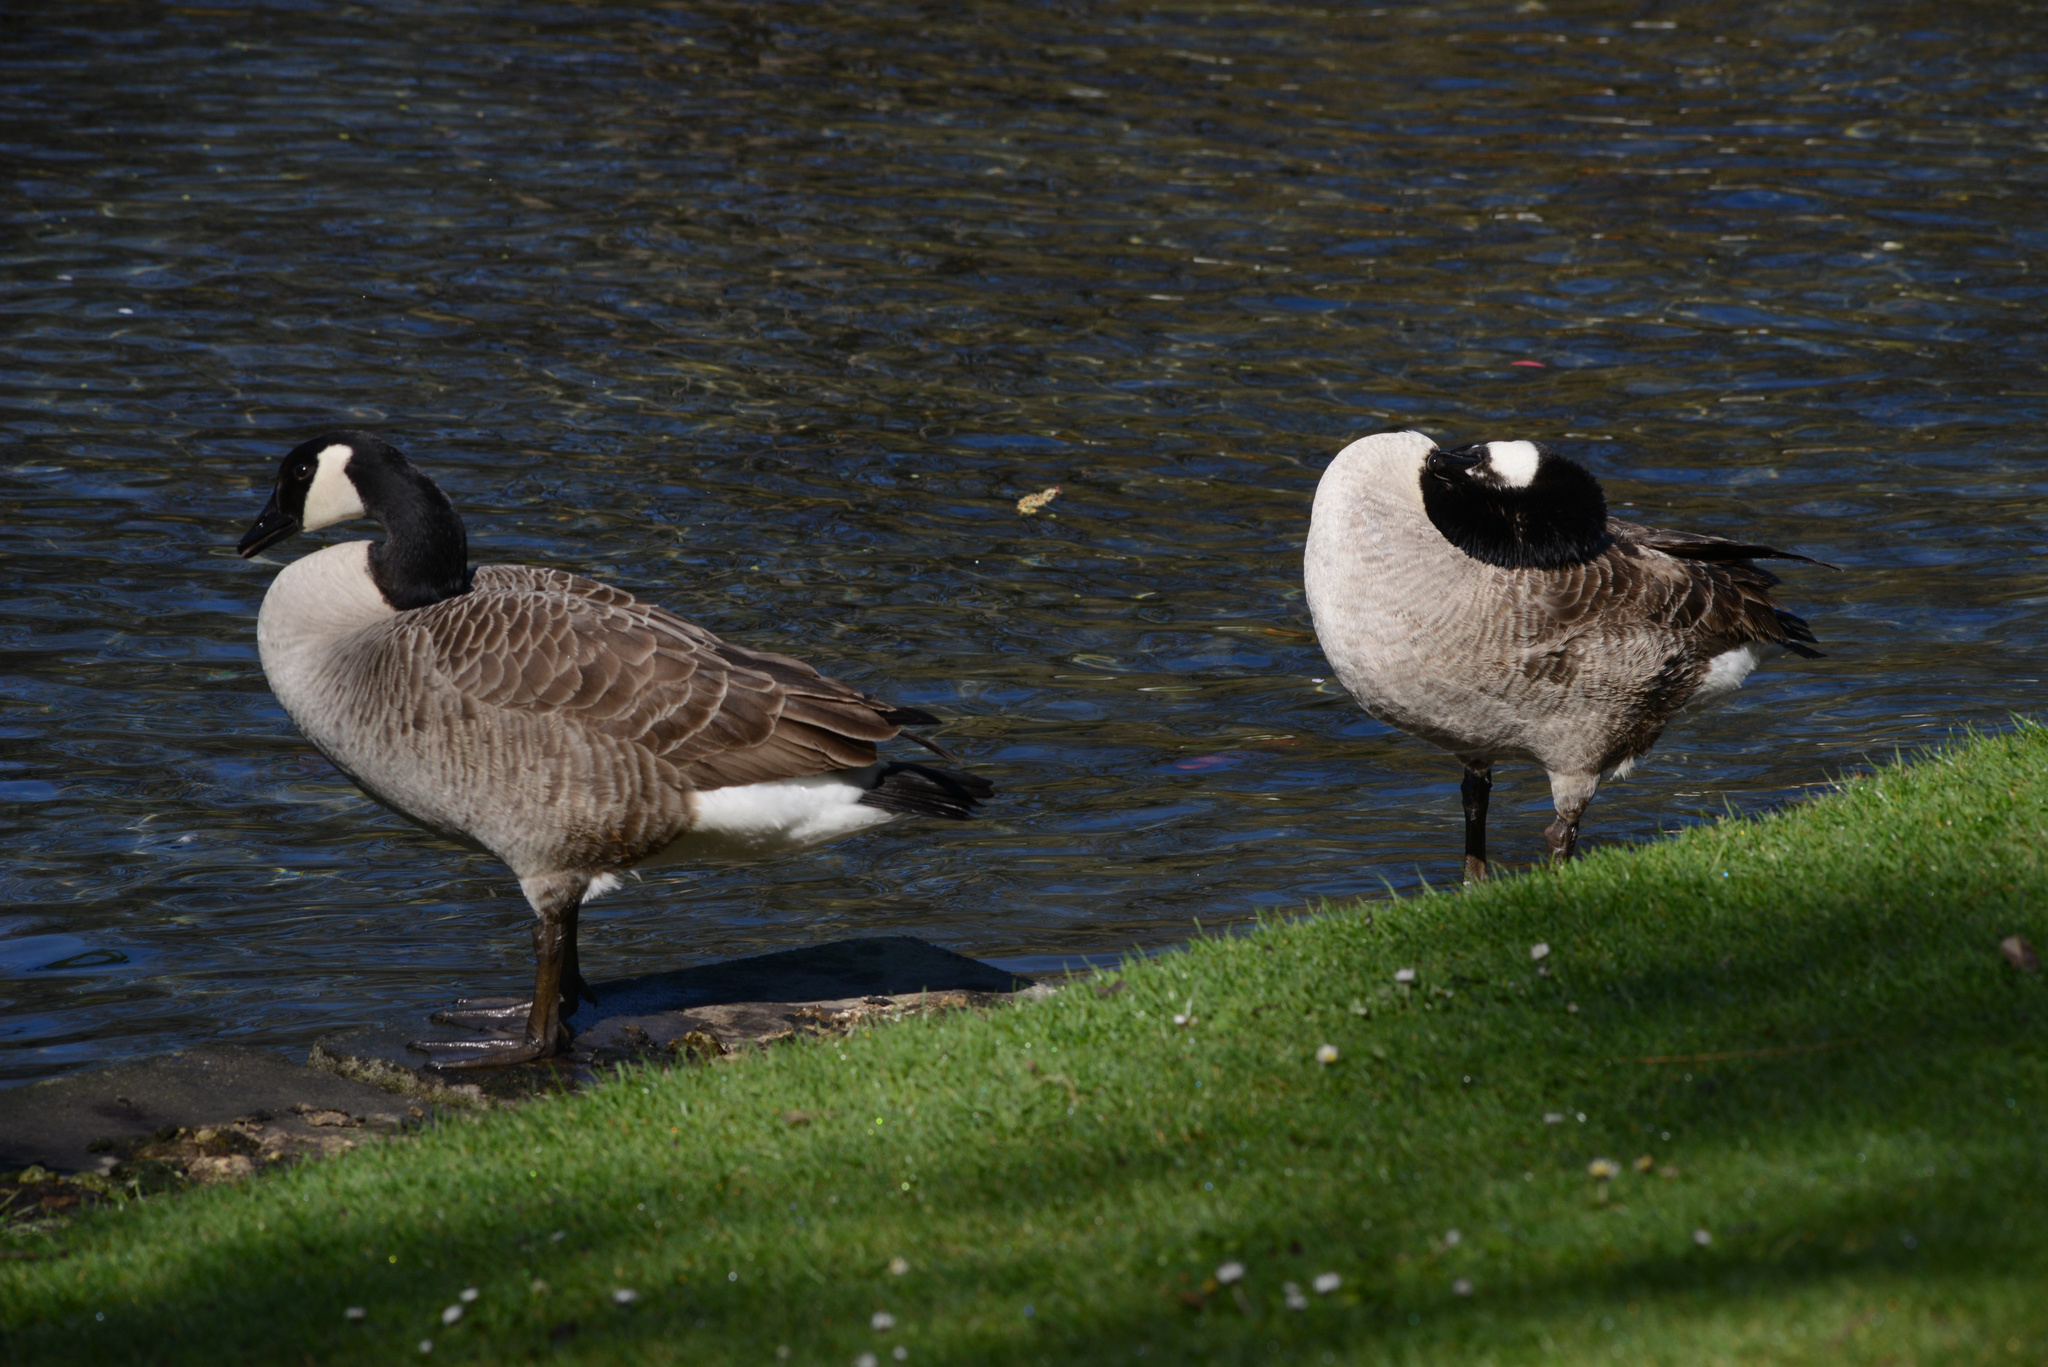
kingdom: Animalia
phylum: Chordata
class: Aves
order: Anseriformes
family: Anatidae
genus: Branta
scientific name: Branta canadensis
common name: Canada goose
